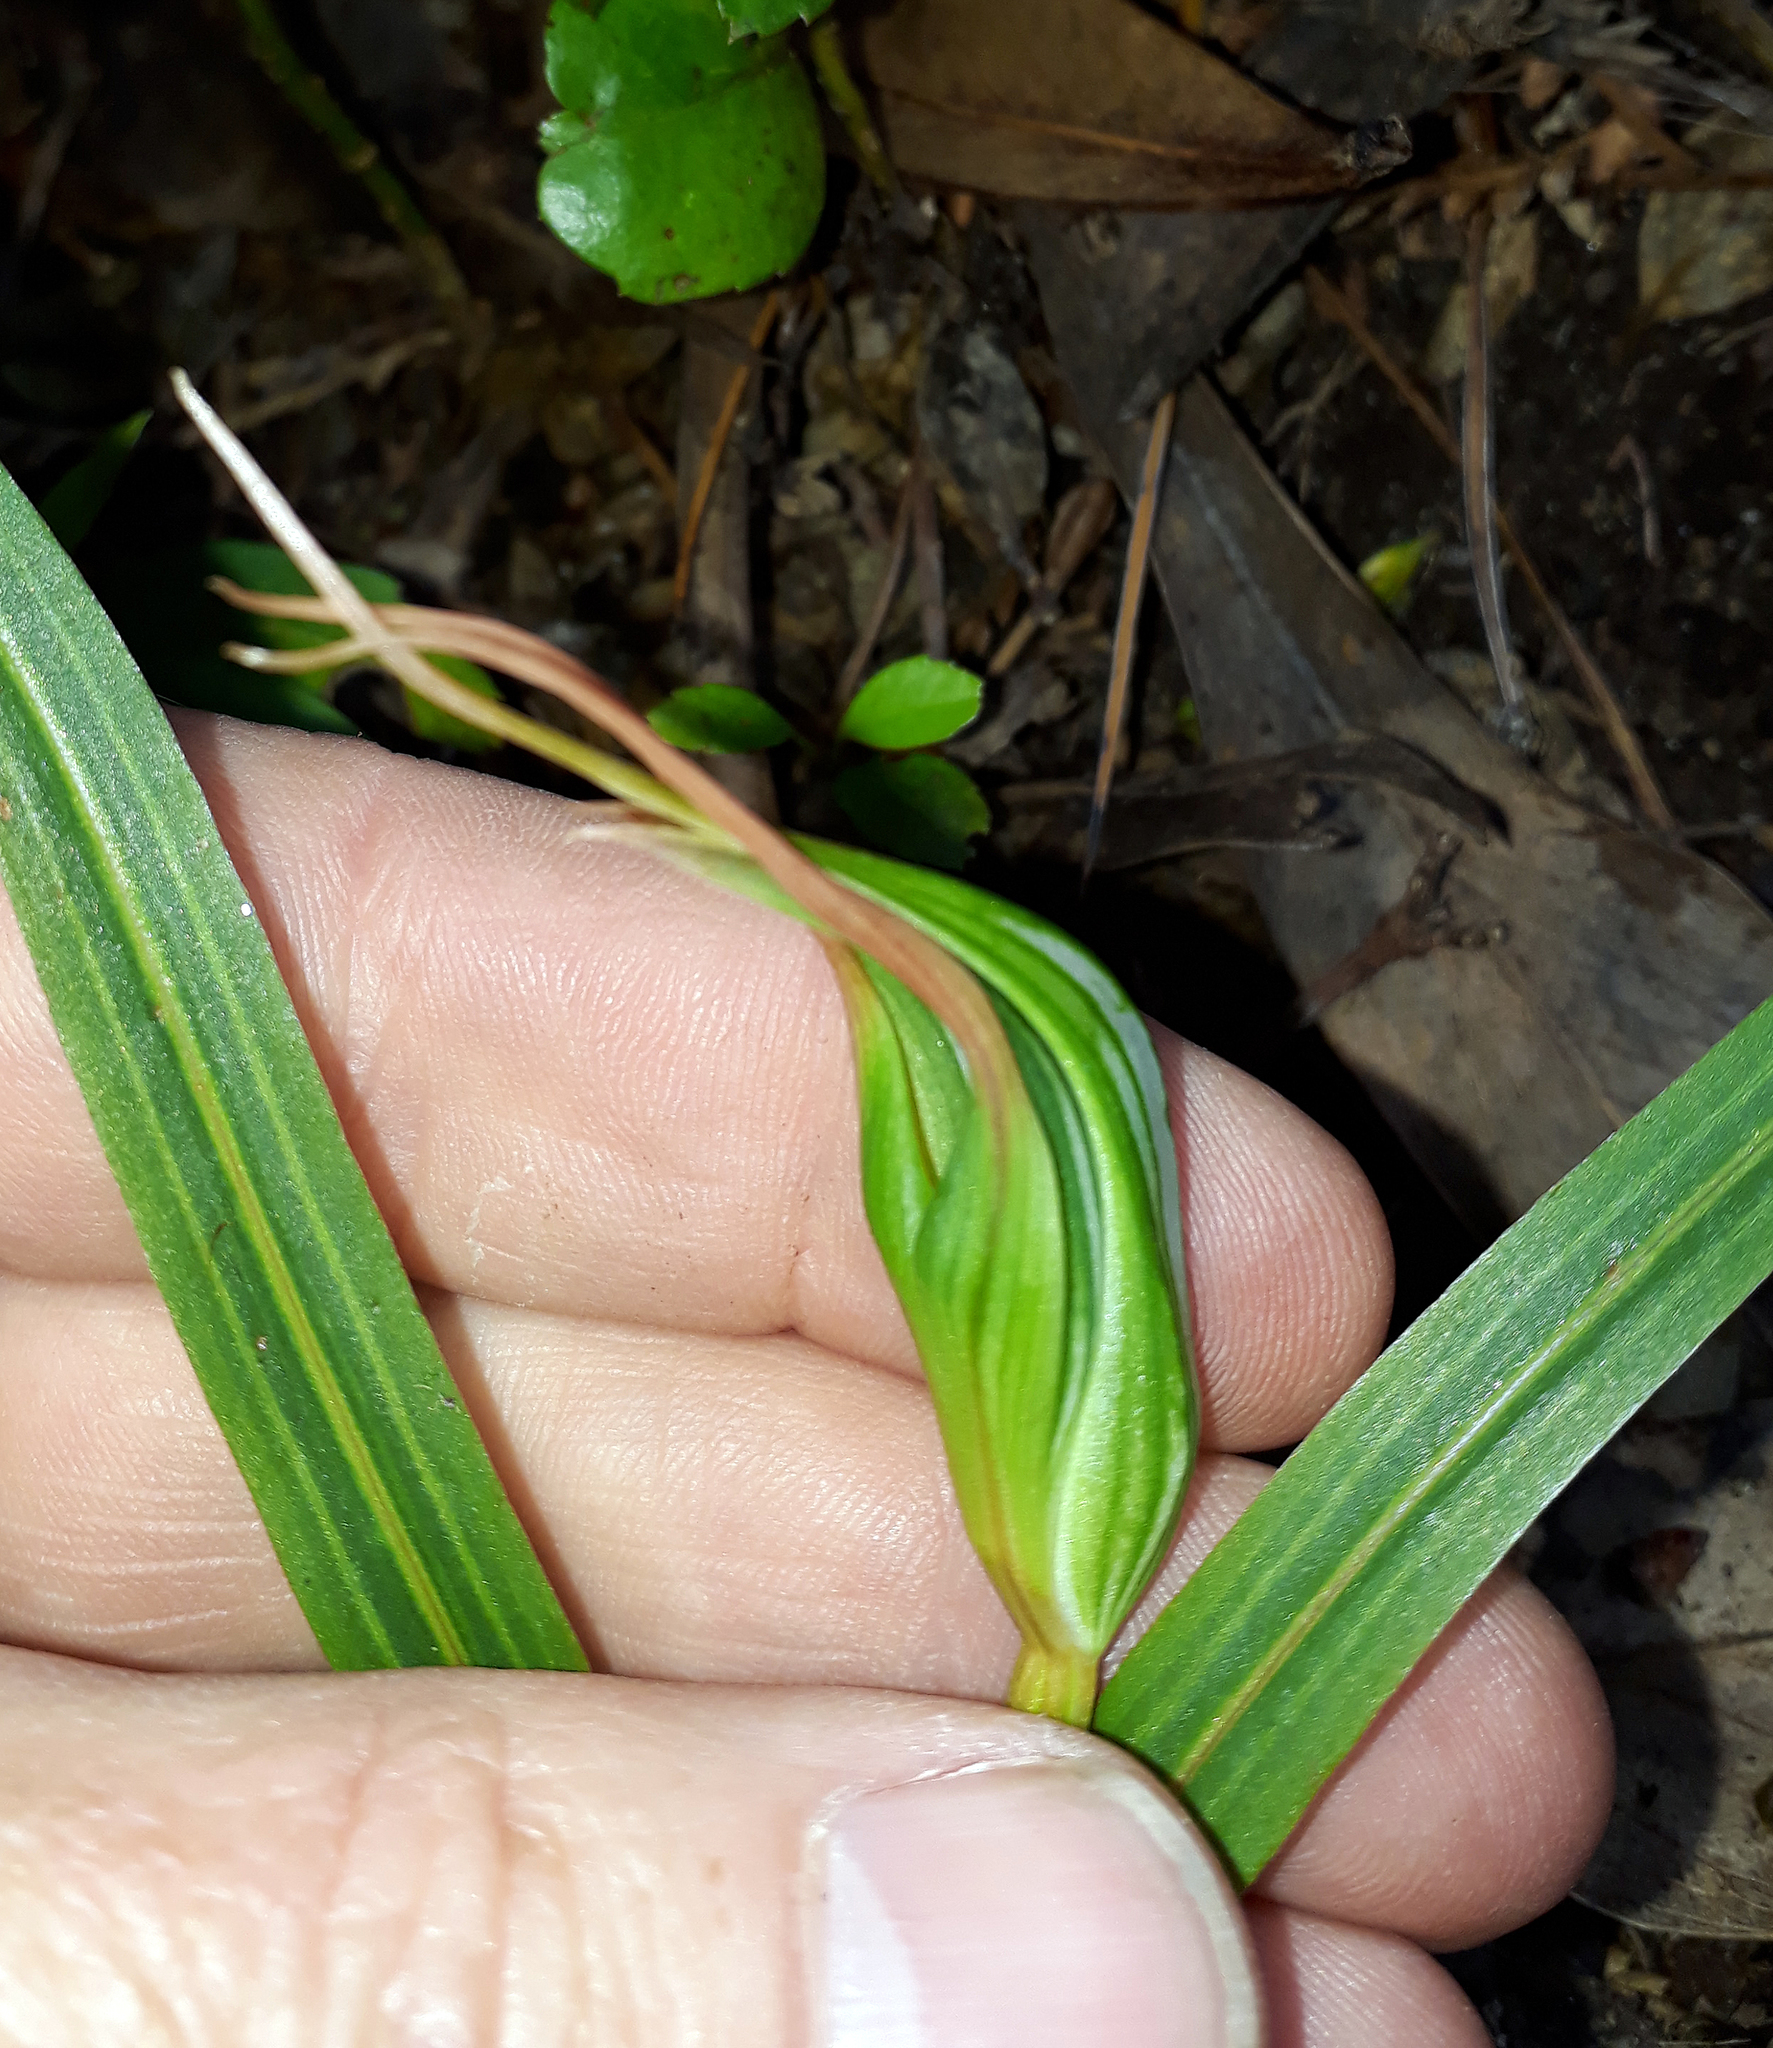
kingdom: Plantae
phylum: Tracheophyta
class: Liliopsida
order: Asparagales
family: Orchidaceae
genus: Pterostylis
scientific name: Pterostylis banksii
